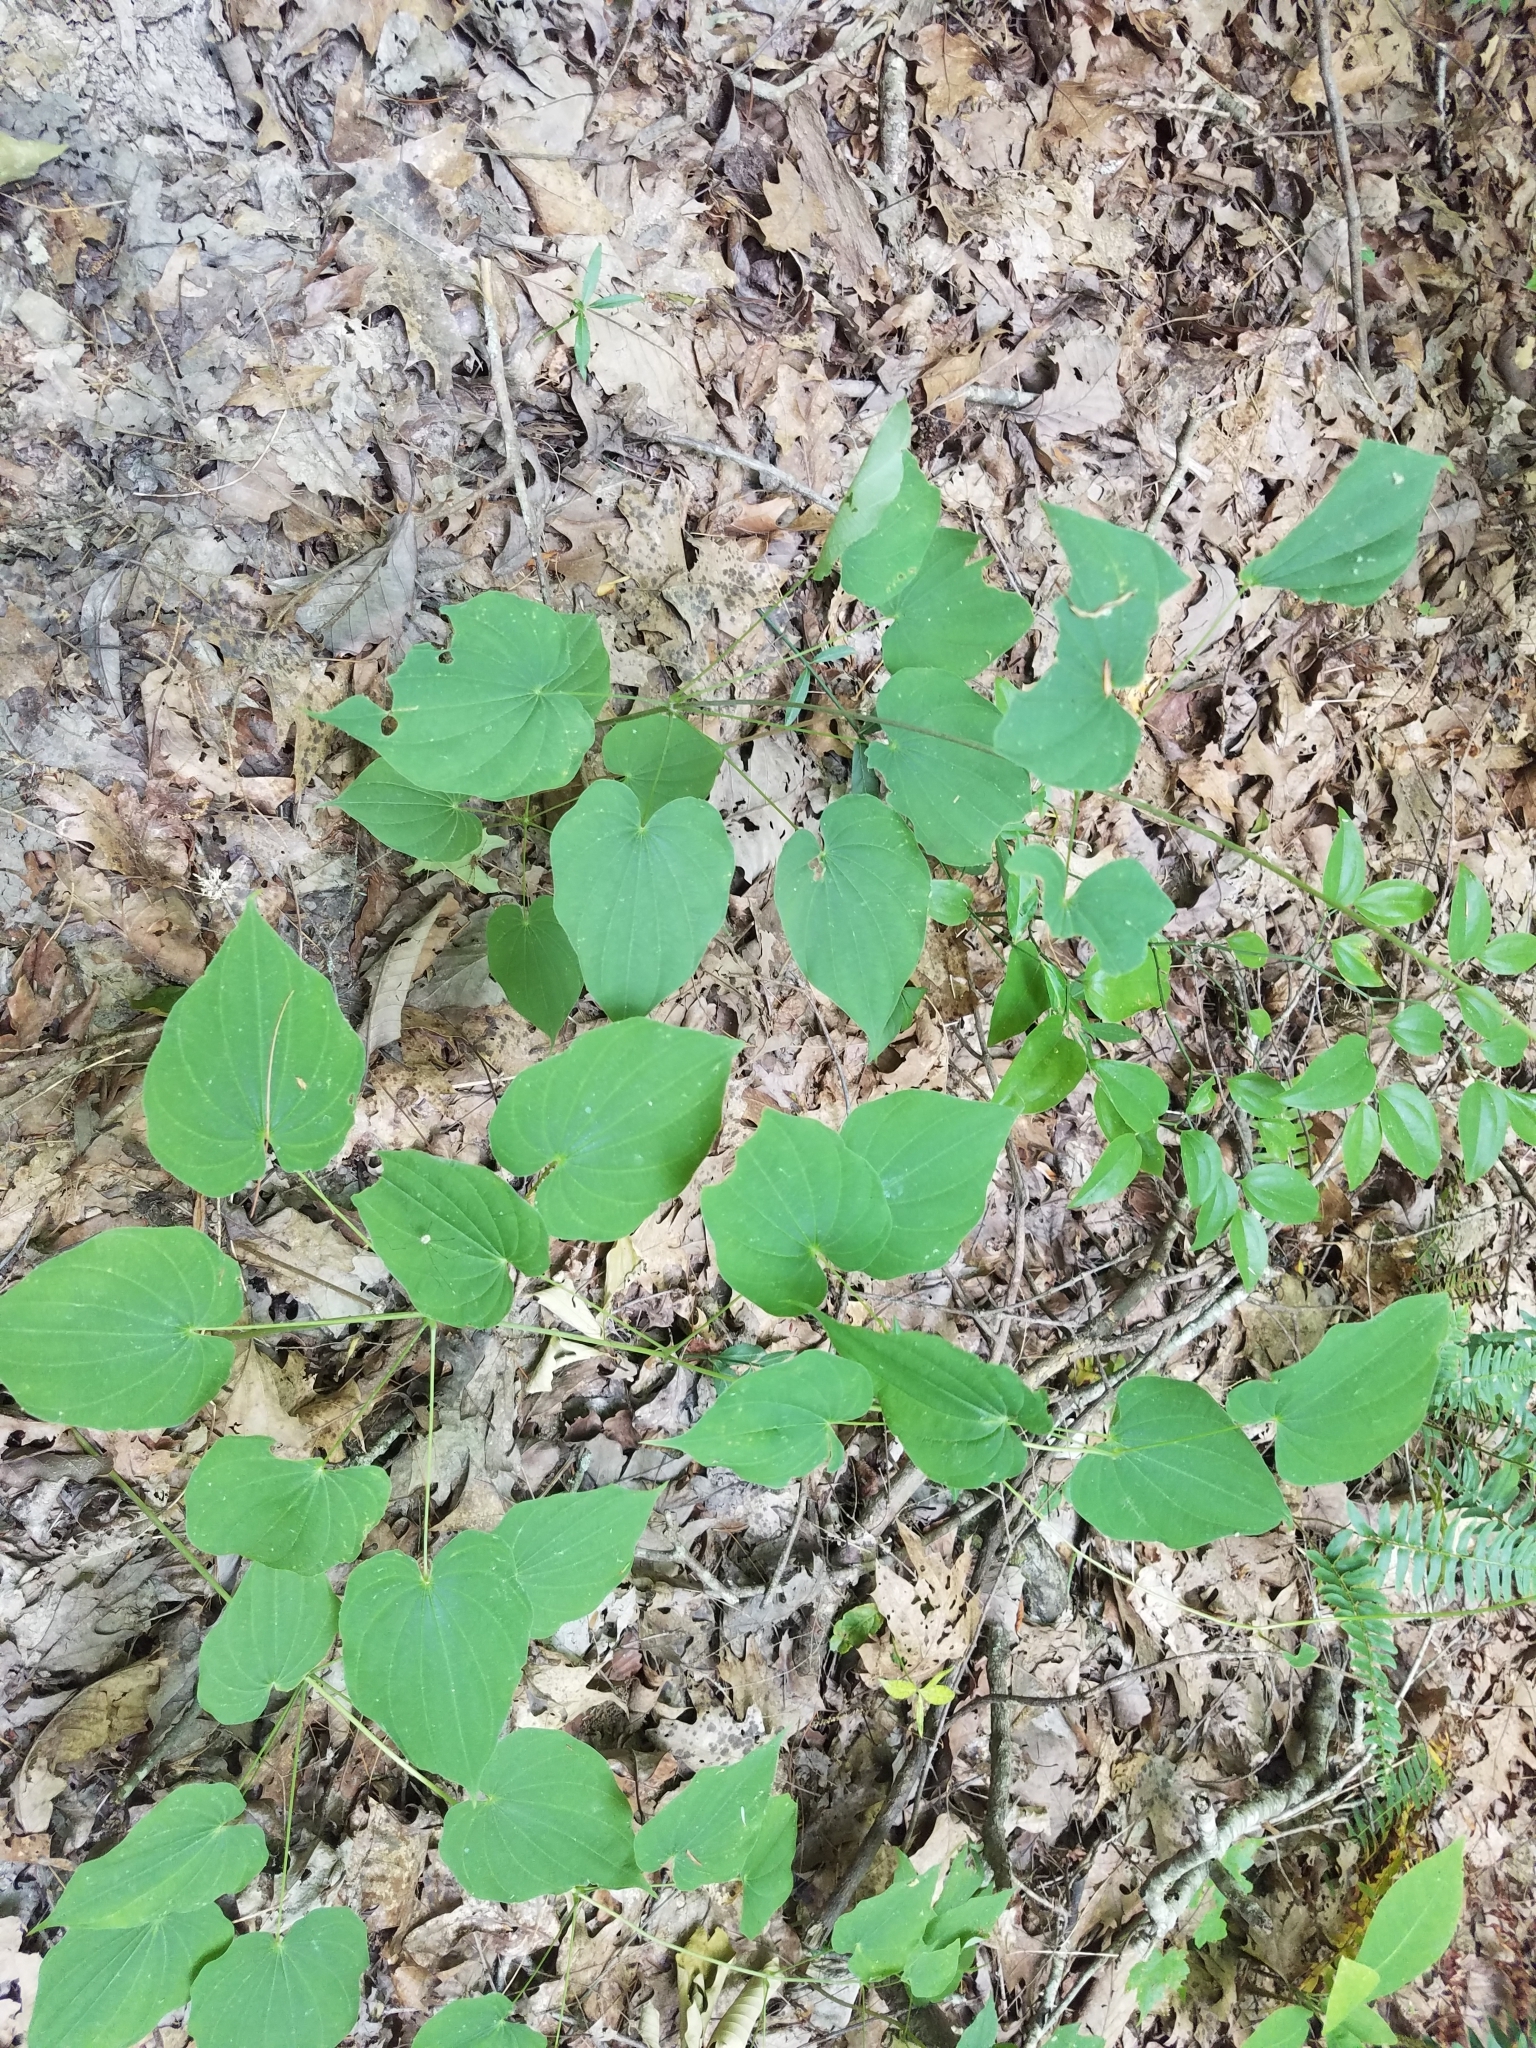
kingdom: Plantae
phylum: Tracheophyta
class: Liliopsida
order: Dioscoreales
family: Dioscoreaceae
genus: Dioscorea
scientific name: Dioscorea villosa
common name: Wild yam
